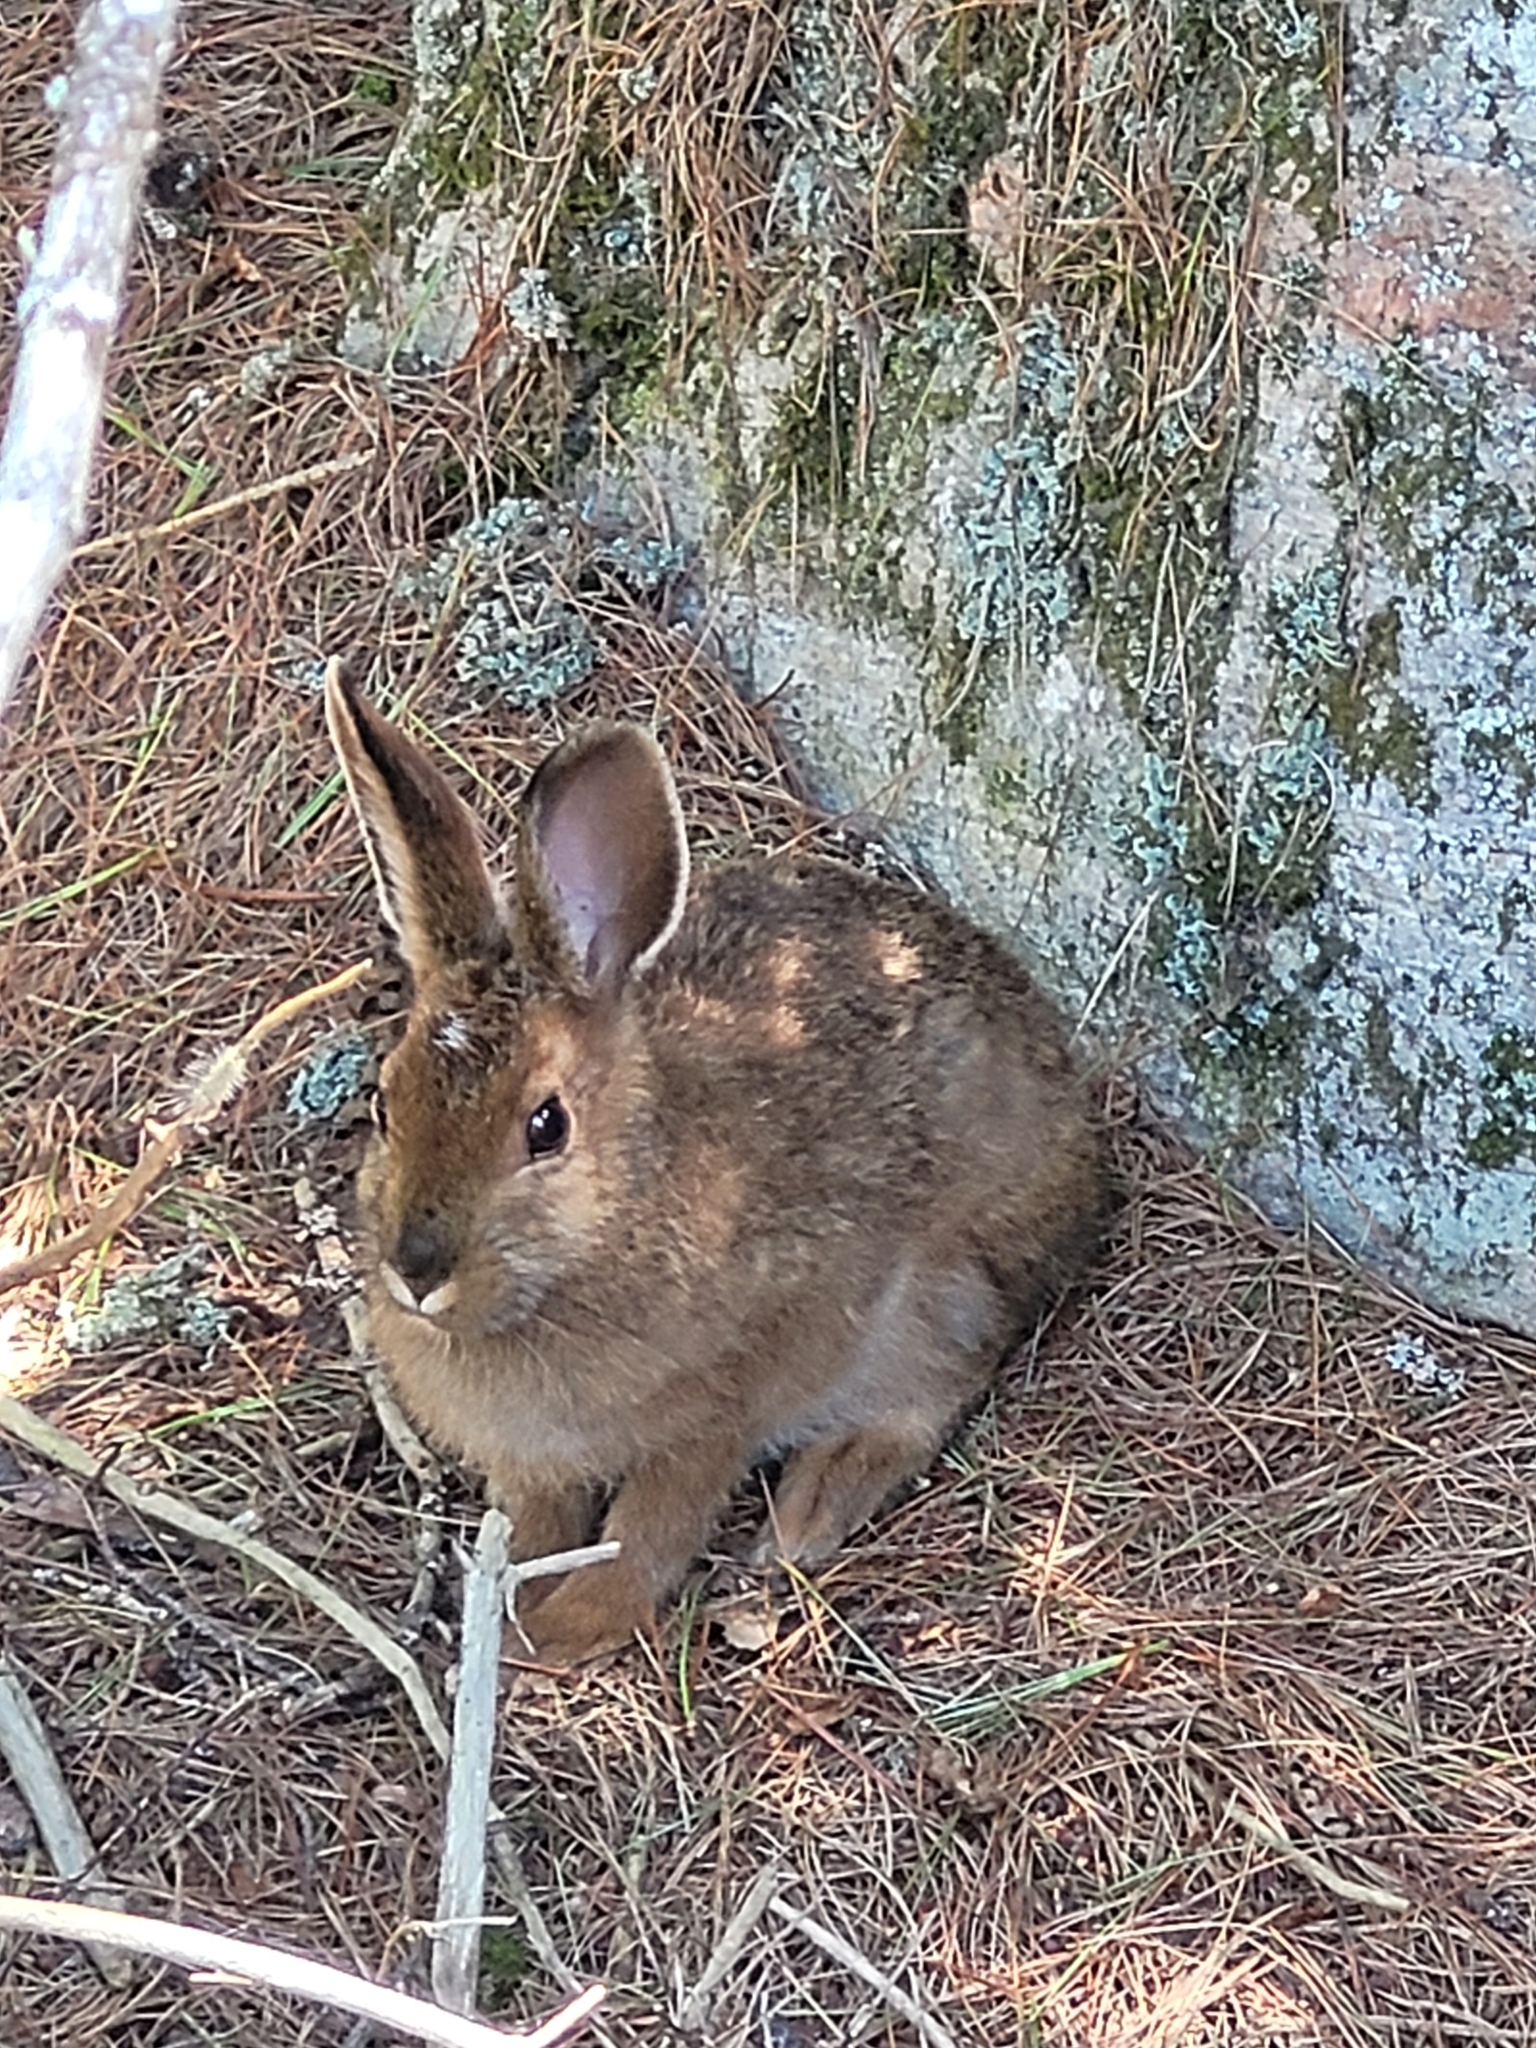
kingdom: Animalia
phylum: Chordata
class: Mammalia
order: Lagomorpha
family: Leporidae
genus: Lepus
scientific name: Lepus americanus
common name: Snowshoe hare
